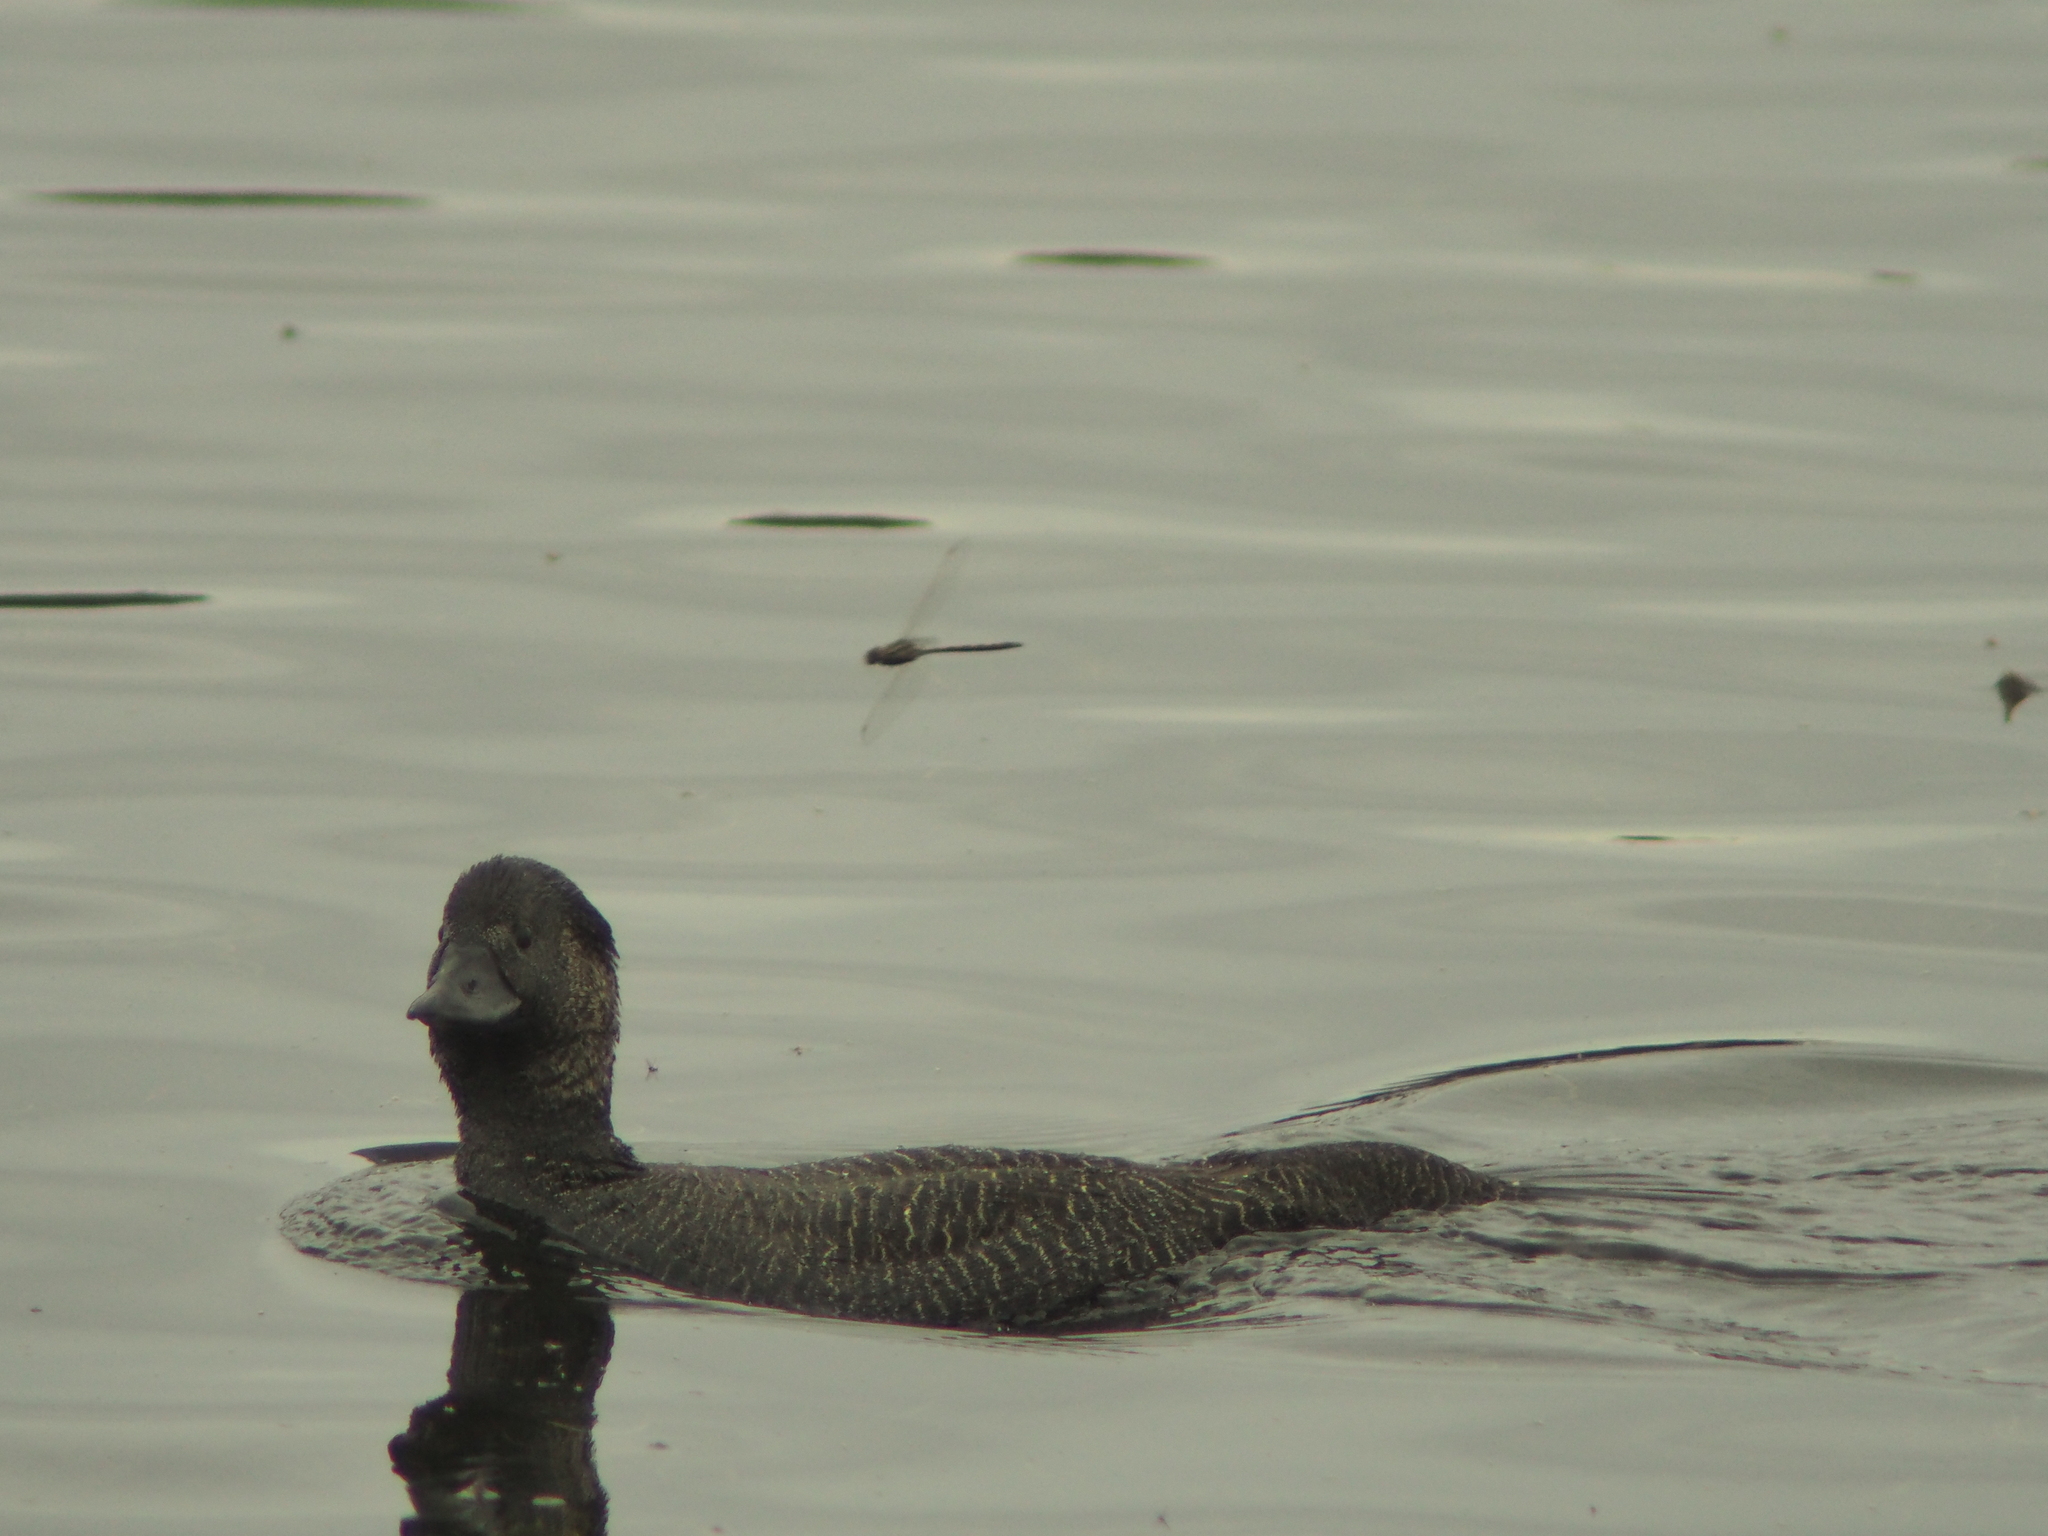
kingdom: Animalia
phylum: Chordata
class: Aves
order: Anseriformes
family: Anatidae
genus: Biziura
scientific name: Biziura lobata
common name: Musk duck
